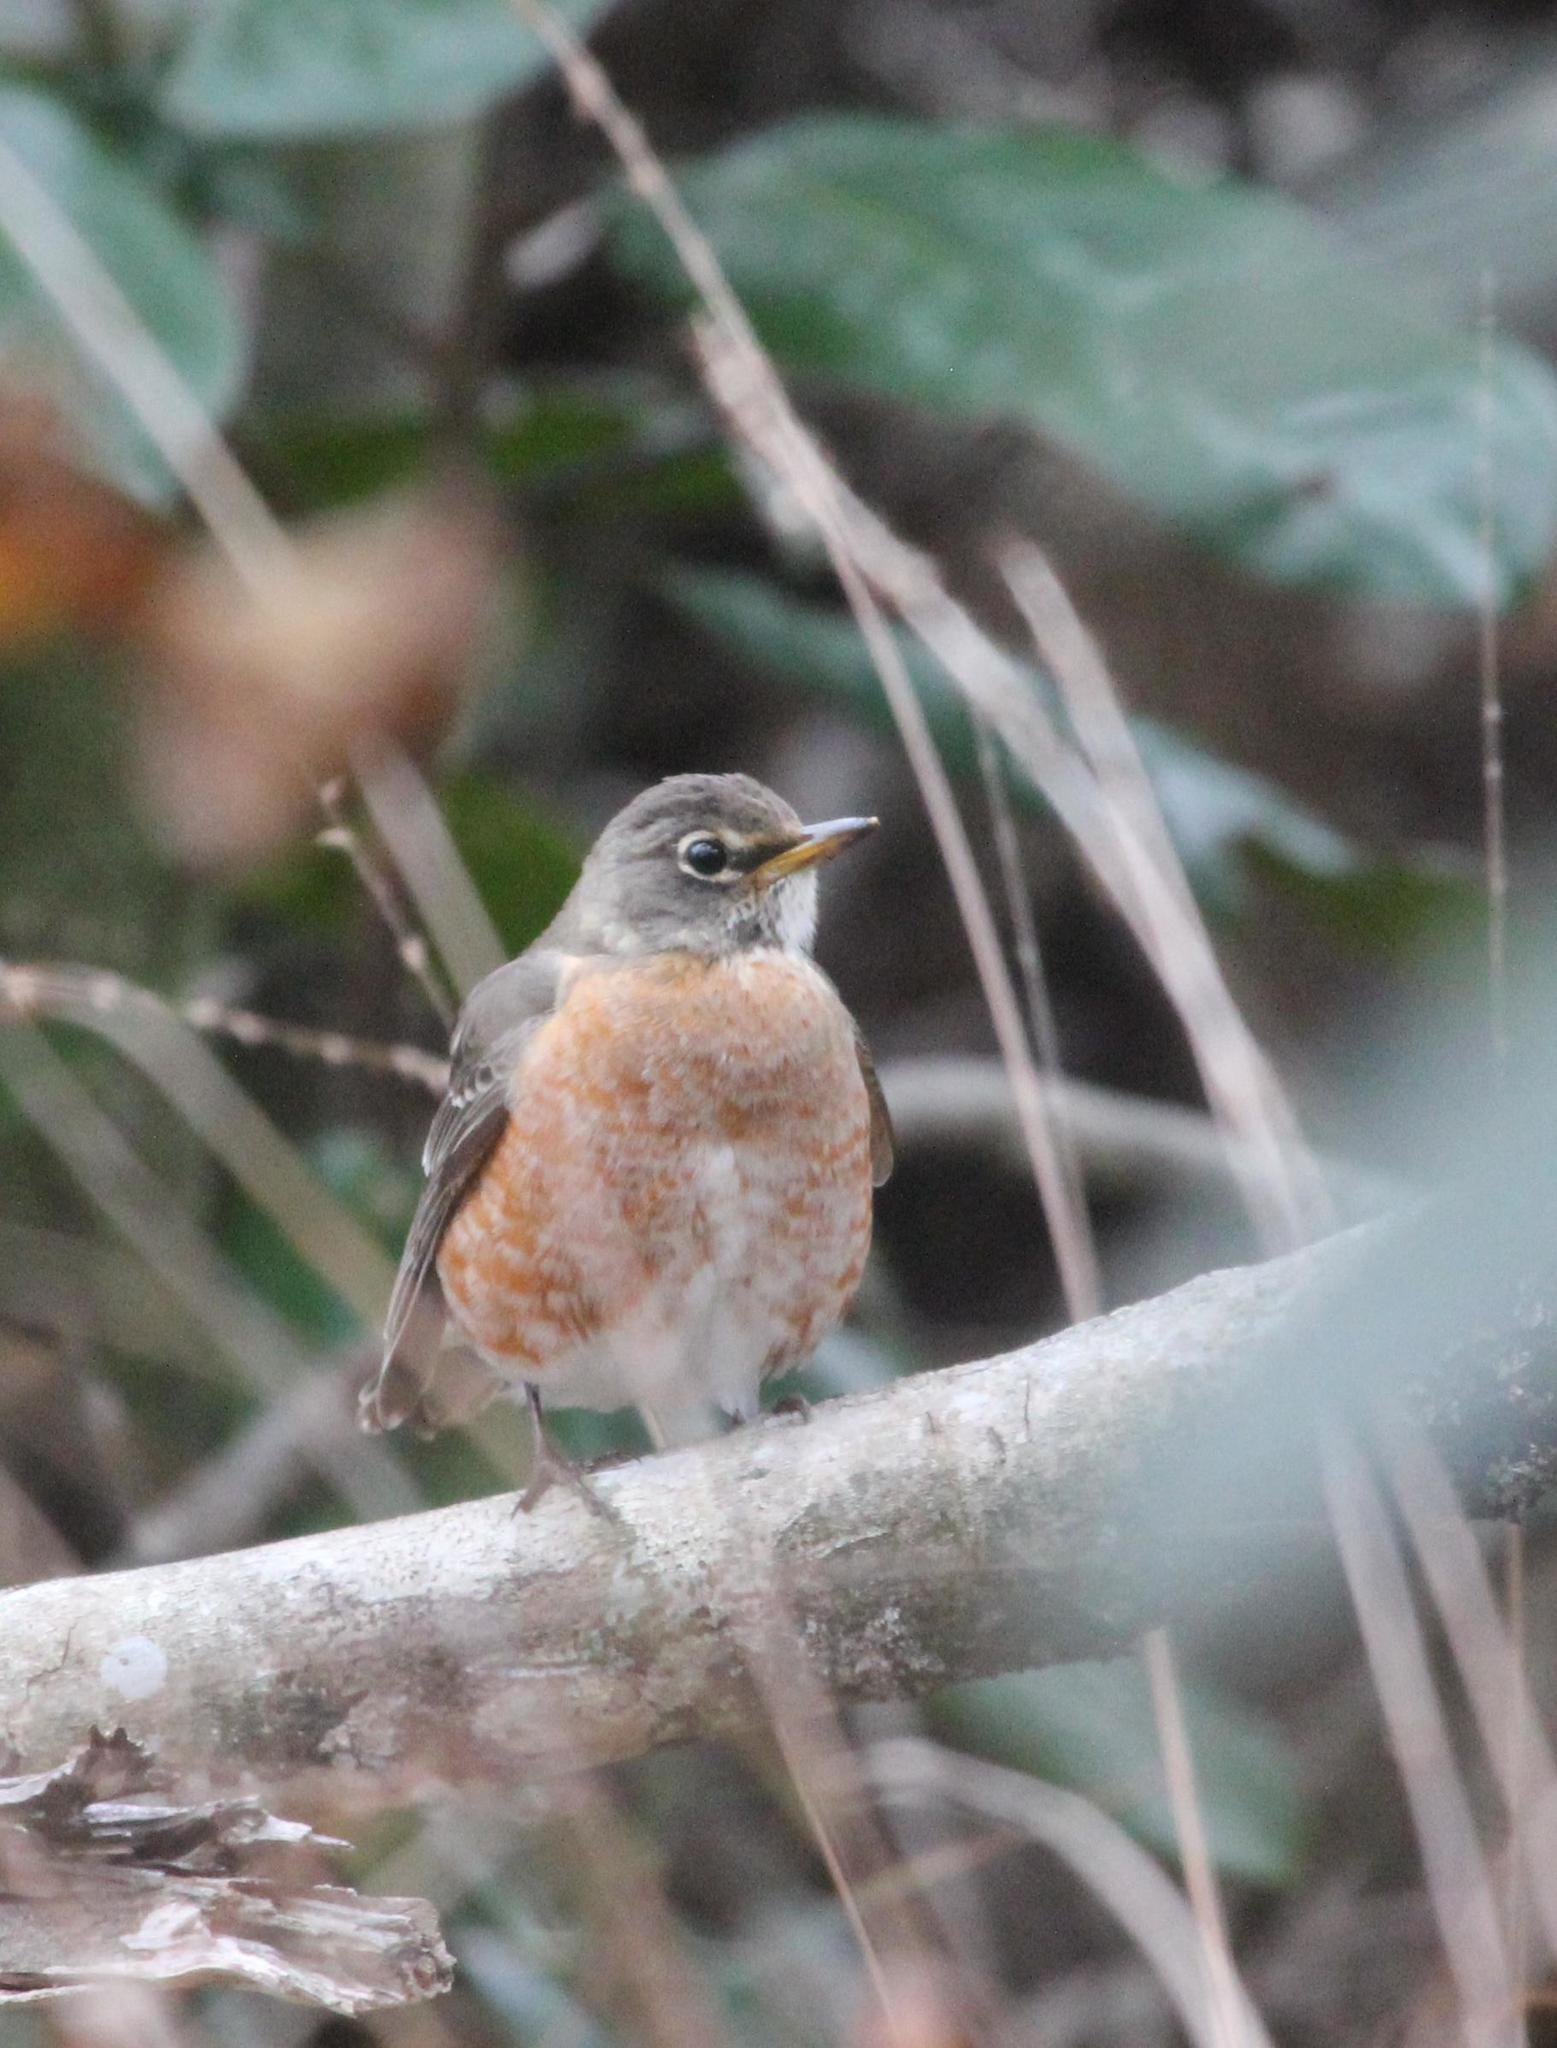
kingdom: Animalia
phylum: Chordata
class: Aves
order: Passeriformes
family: Turdidae
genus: Turdus
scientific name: Turdus migratorius
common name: American robin
